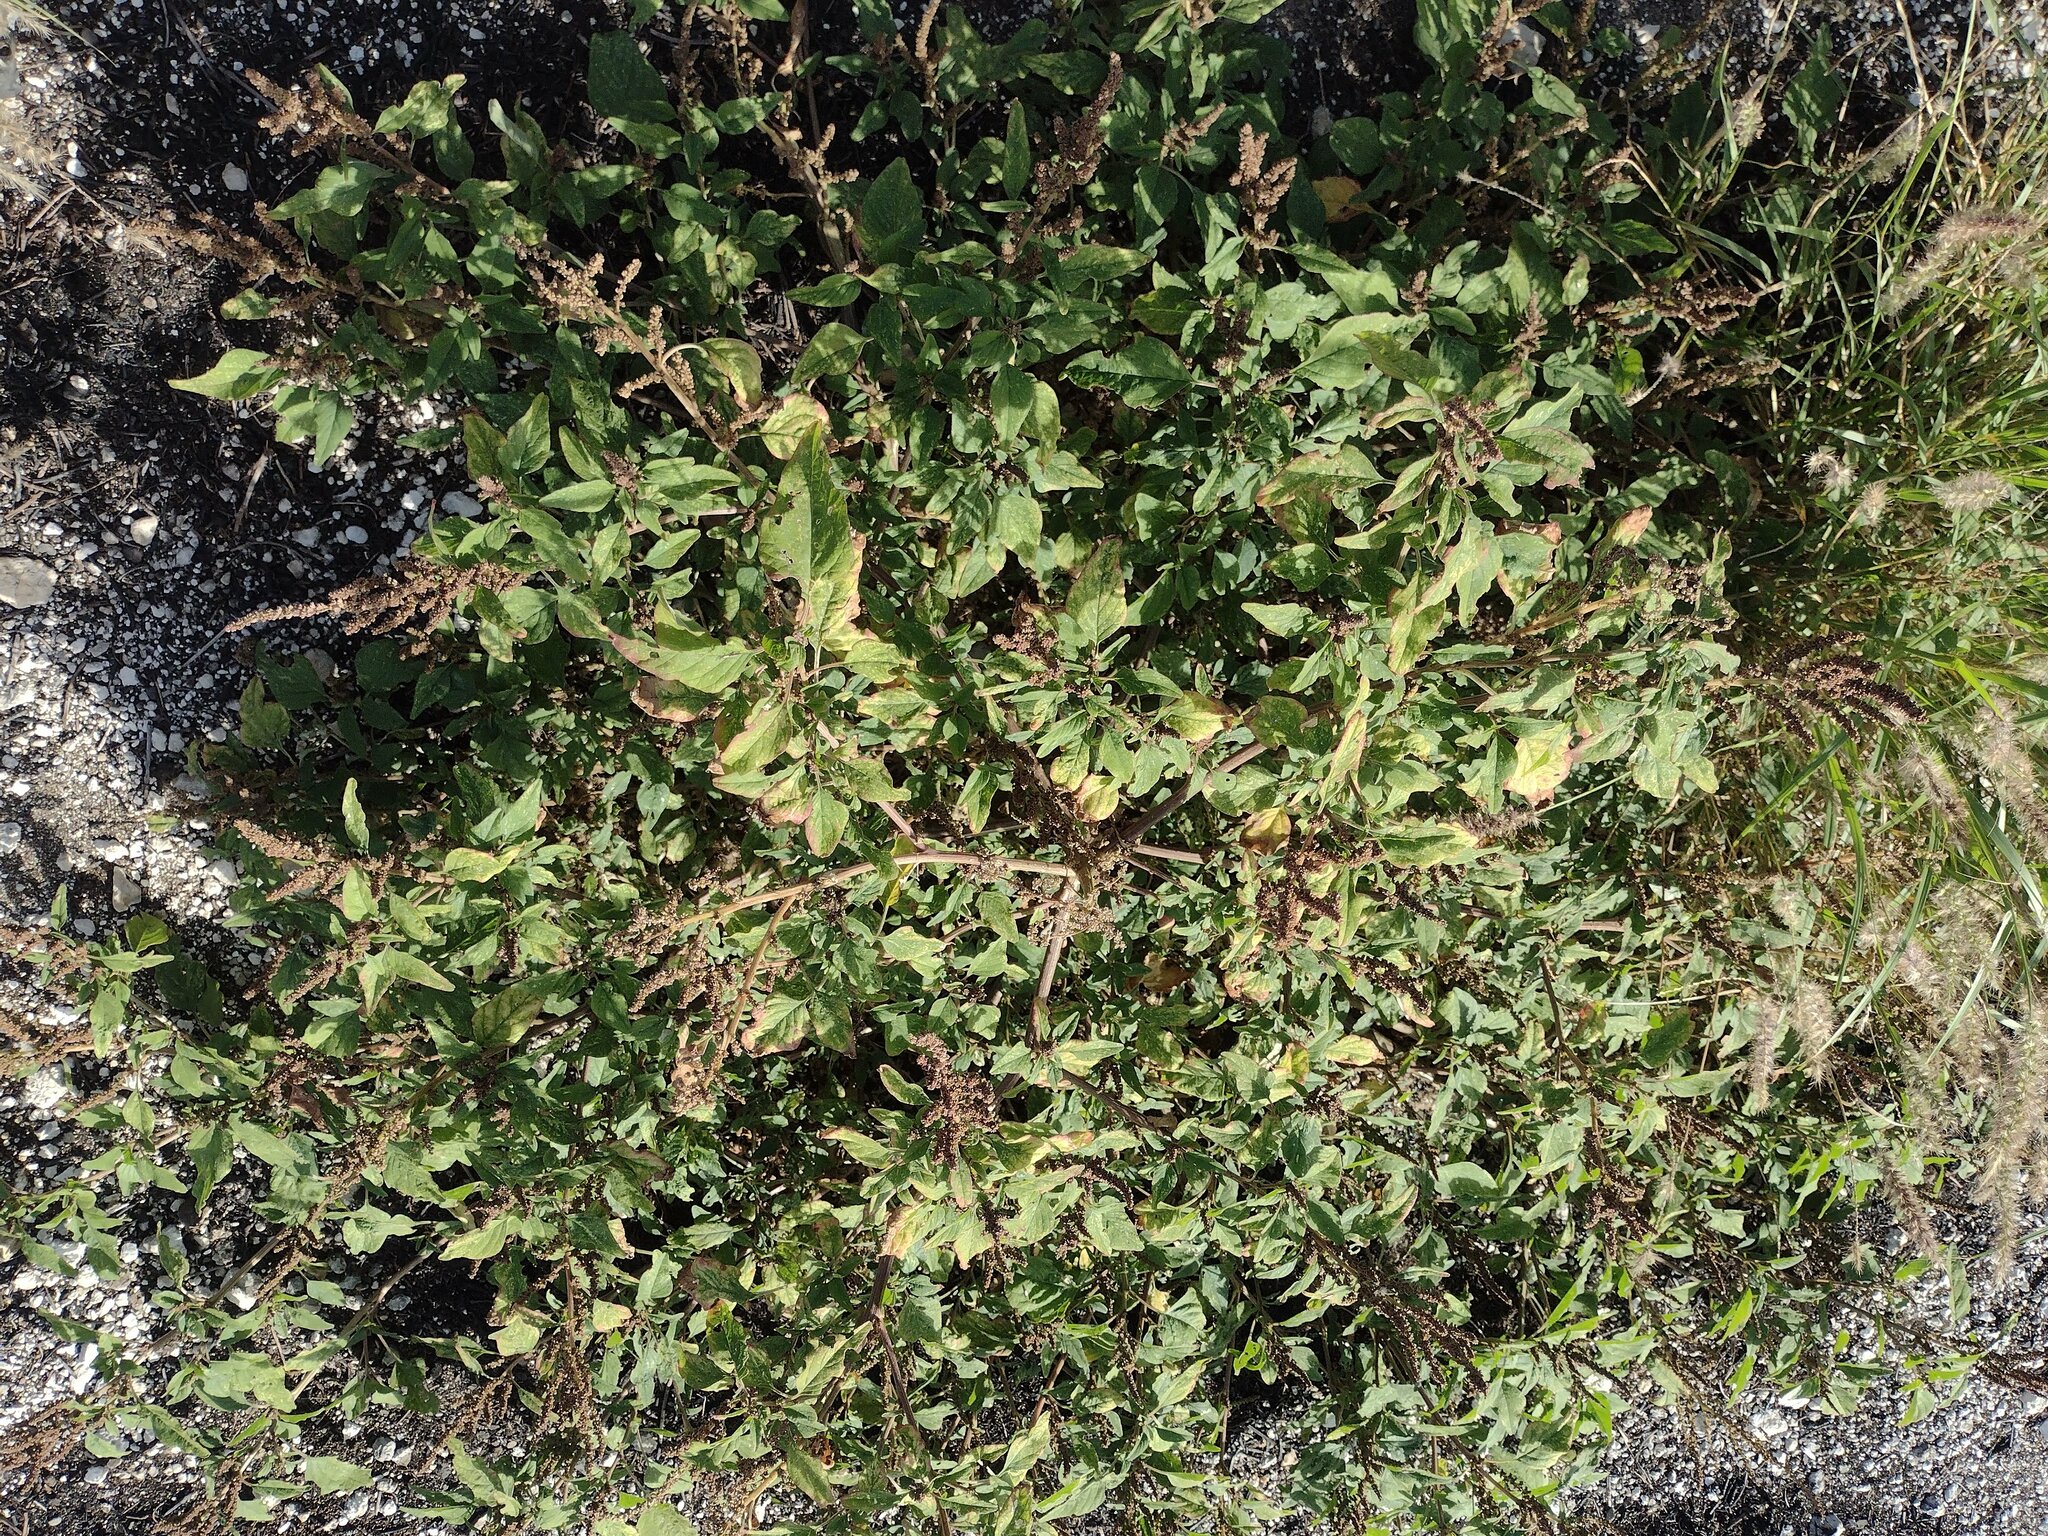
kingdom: Plantae
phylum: Tracheophyta
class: Magnoliopsida
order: Caryophyllales
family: Amaranthaceae
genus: Amaranthus
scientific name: Amaranthus viridis
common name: Slender amaranth
